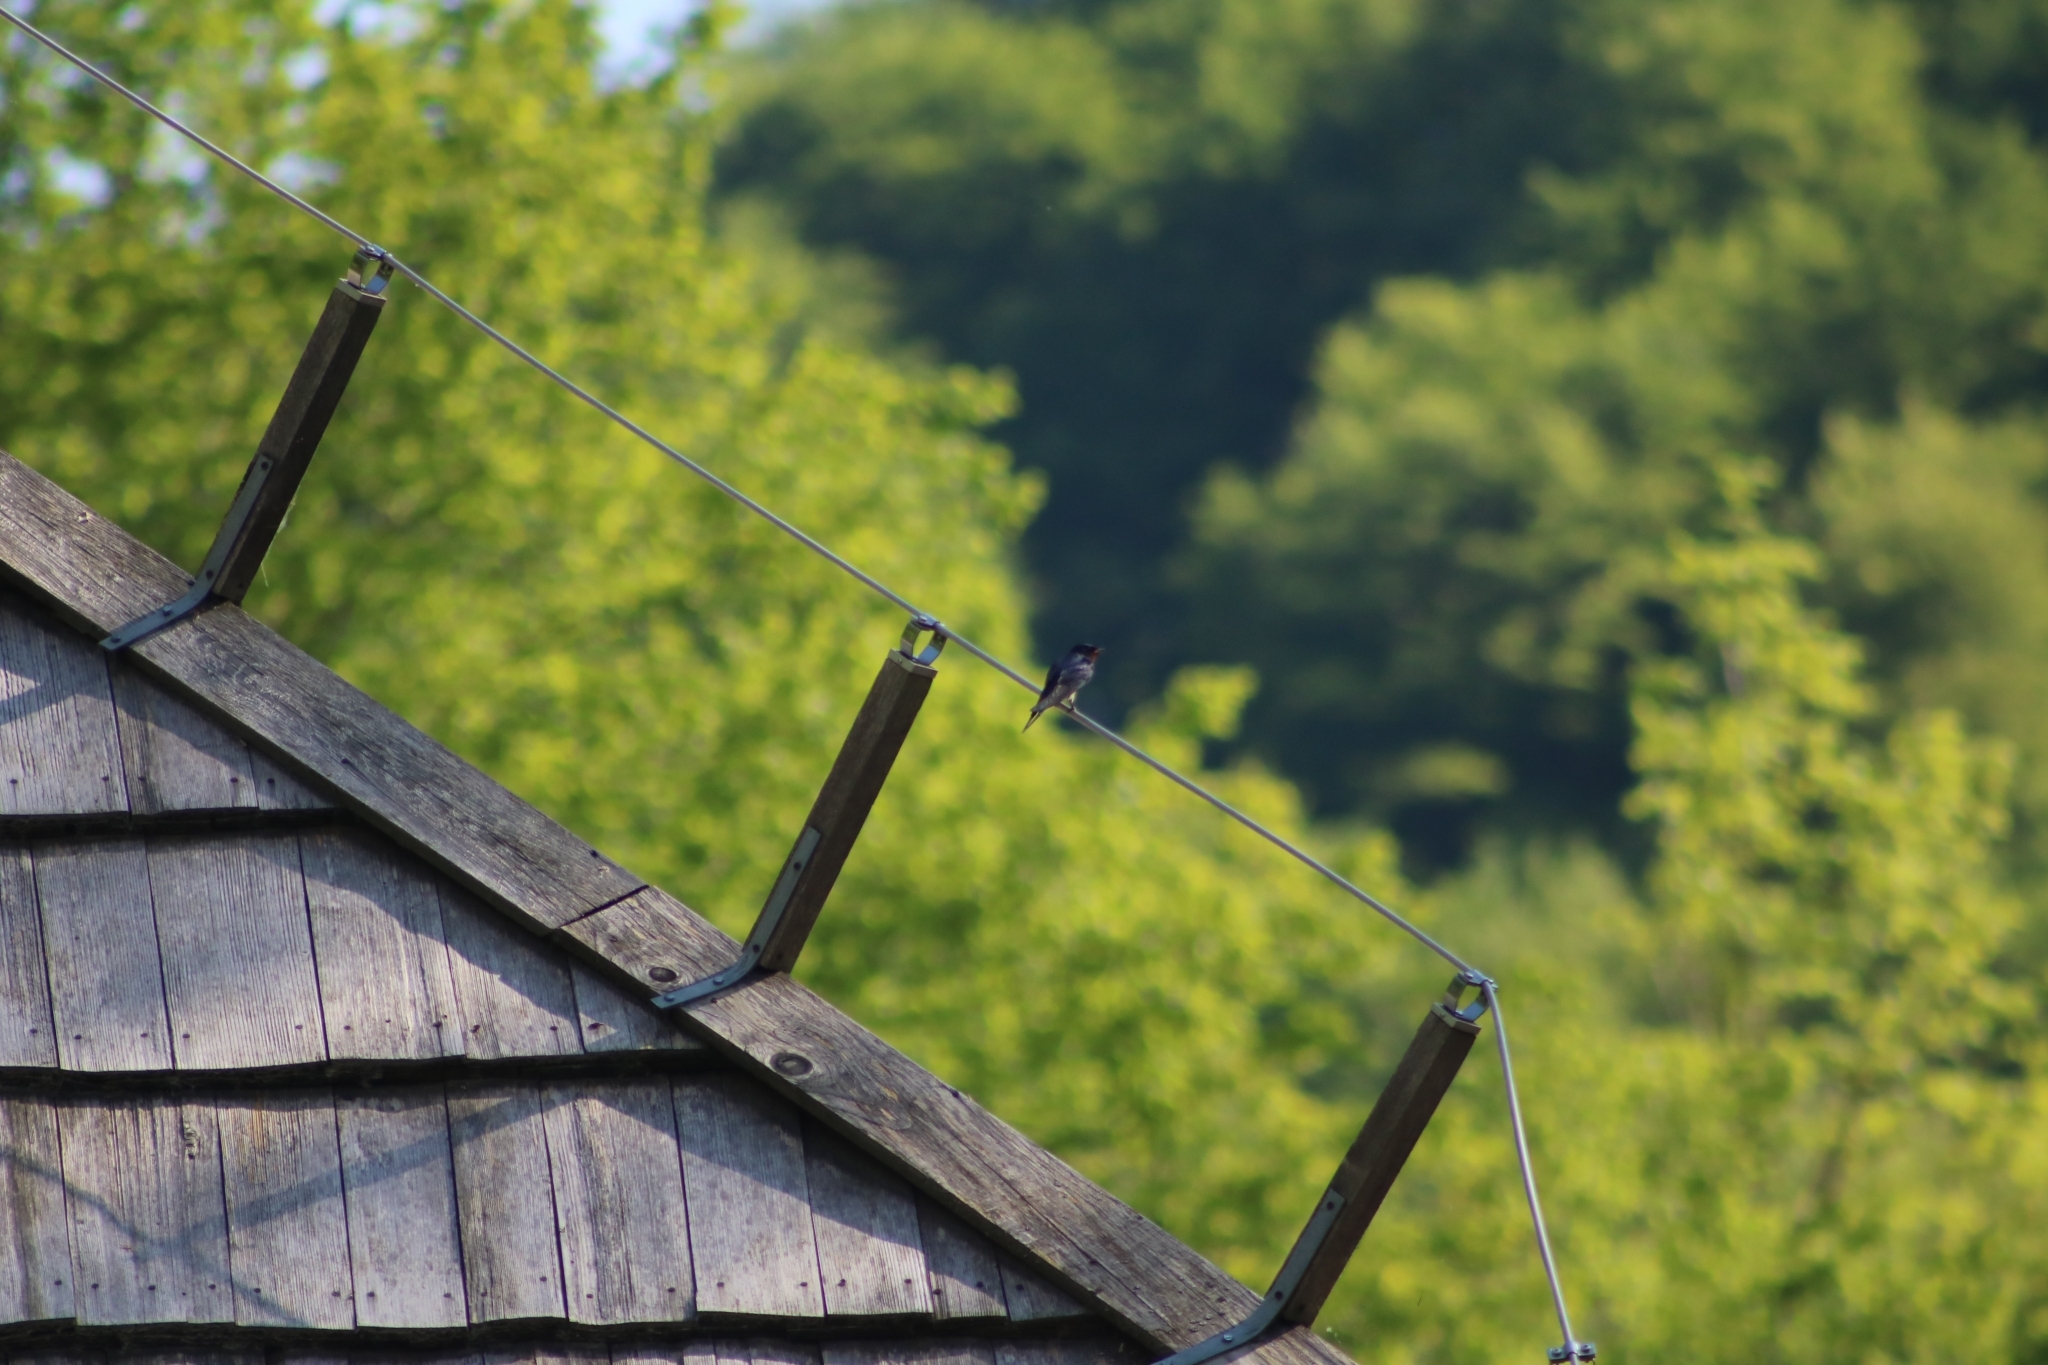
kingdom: Animalia
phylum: Chordata
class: Aves
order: Passeriformes
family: Hirundinidae
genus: Hirundo
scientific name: Hirundo rustica
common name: Barn swallow
